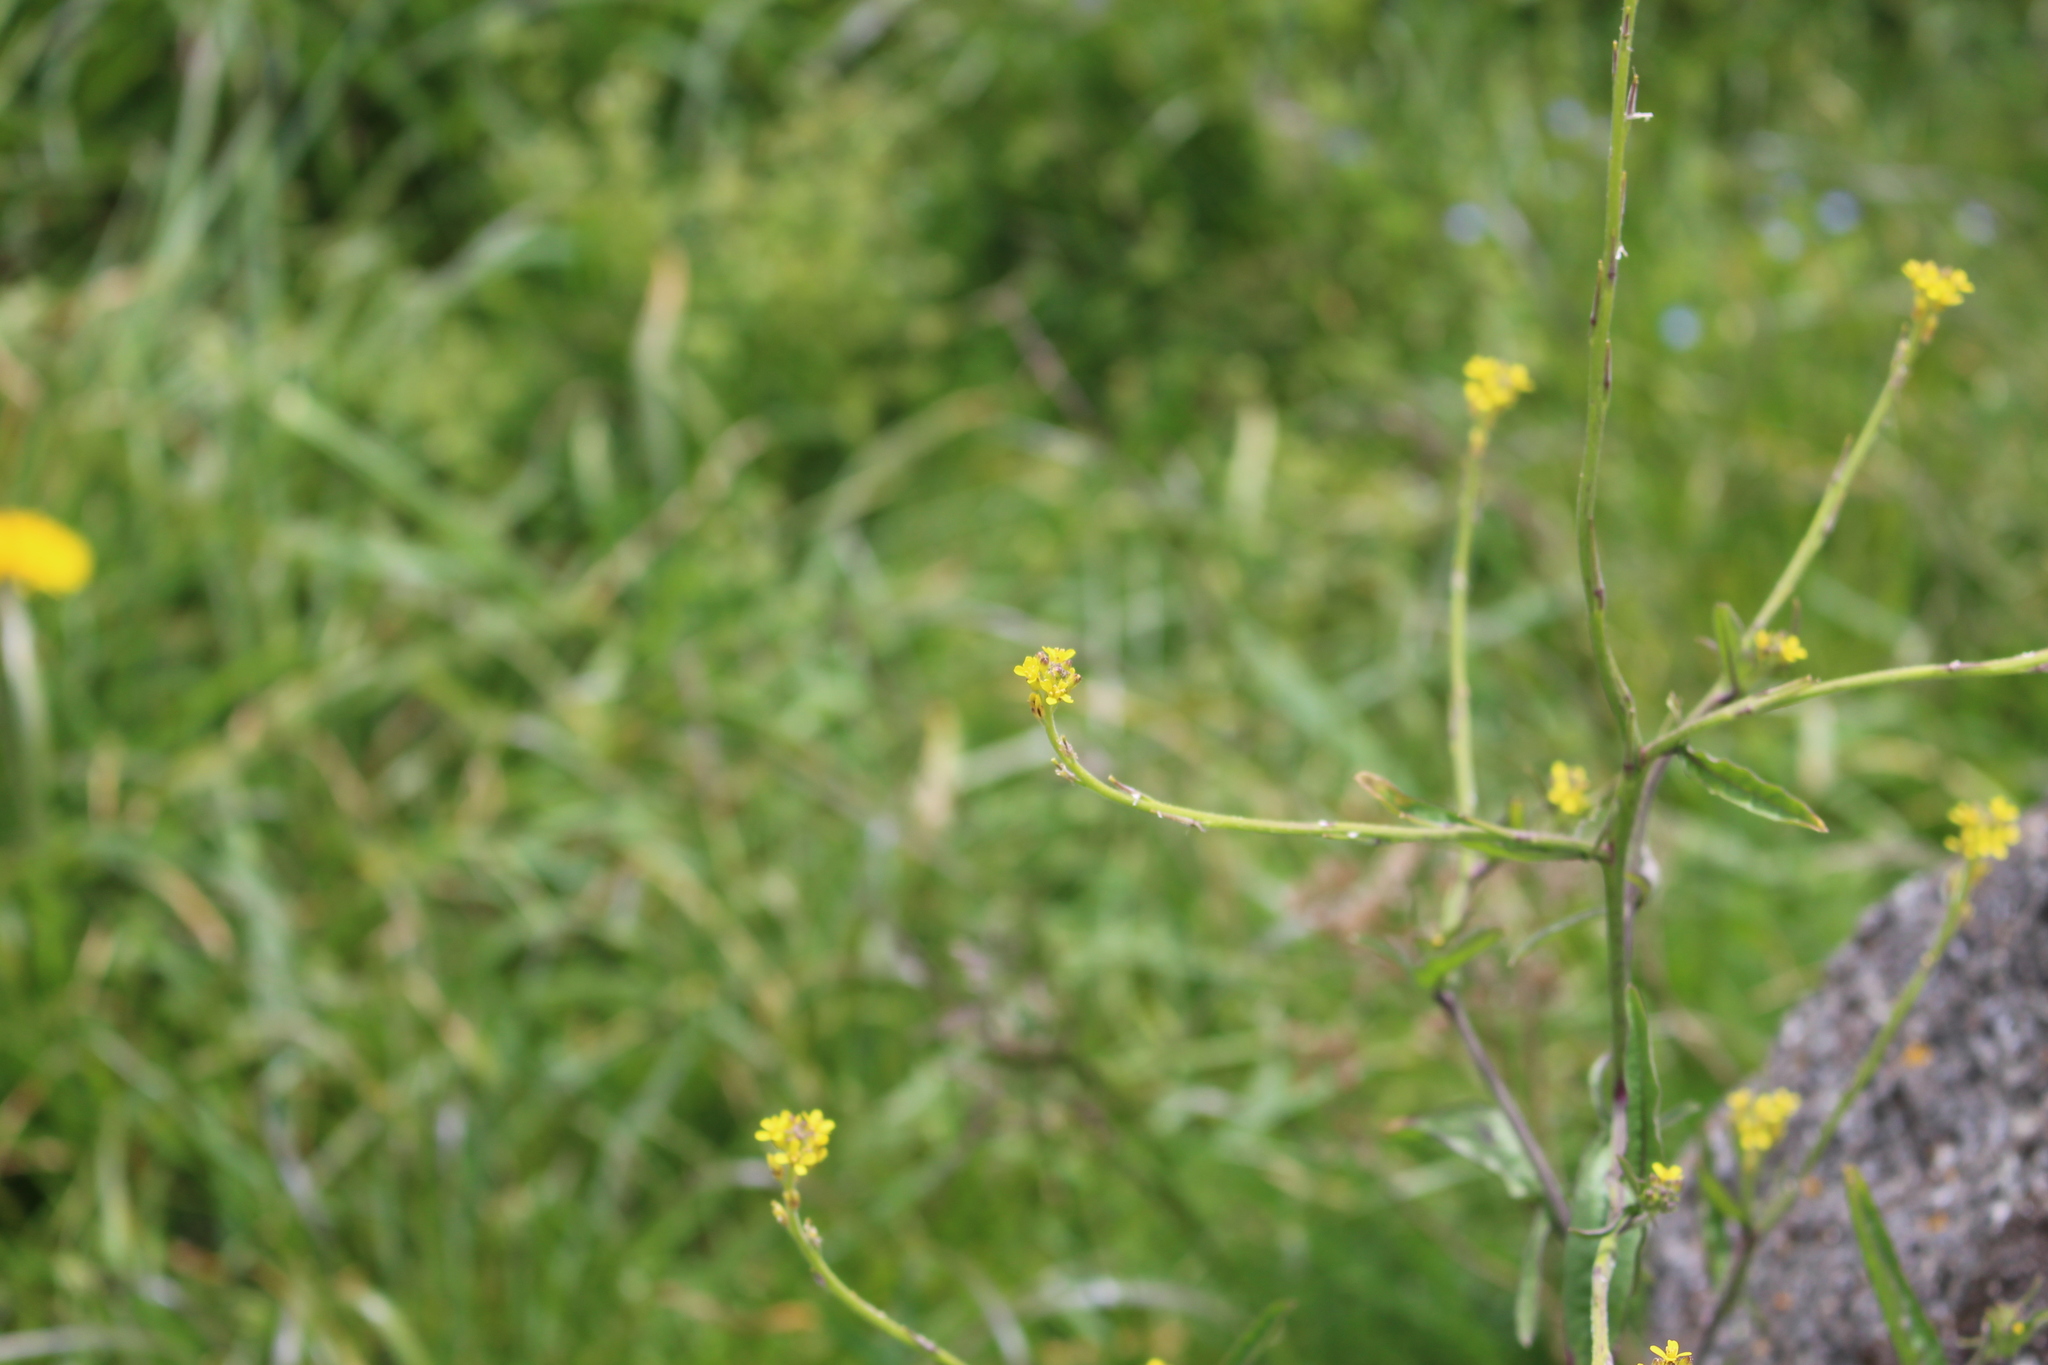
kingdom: Plantae
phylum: Tracheophyta
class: Magnoliopsida
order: Brassicales
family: Brassicaceae
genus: Sisymbrium
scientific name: Sisymbrium officinale
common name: Hedge mustard
